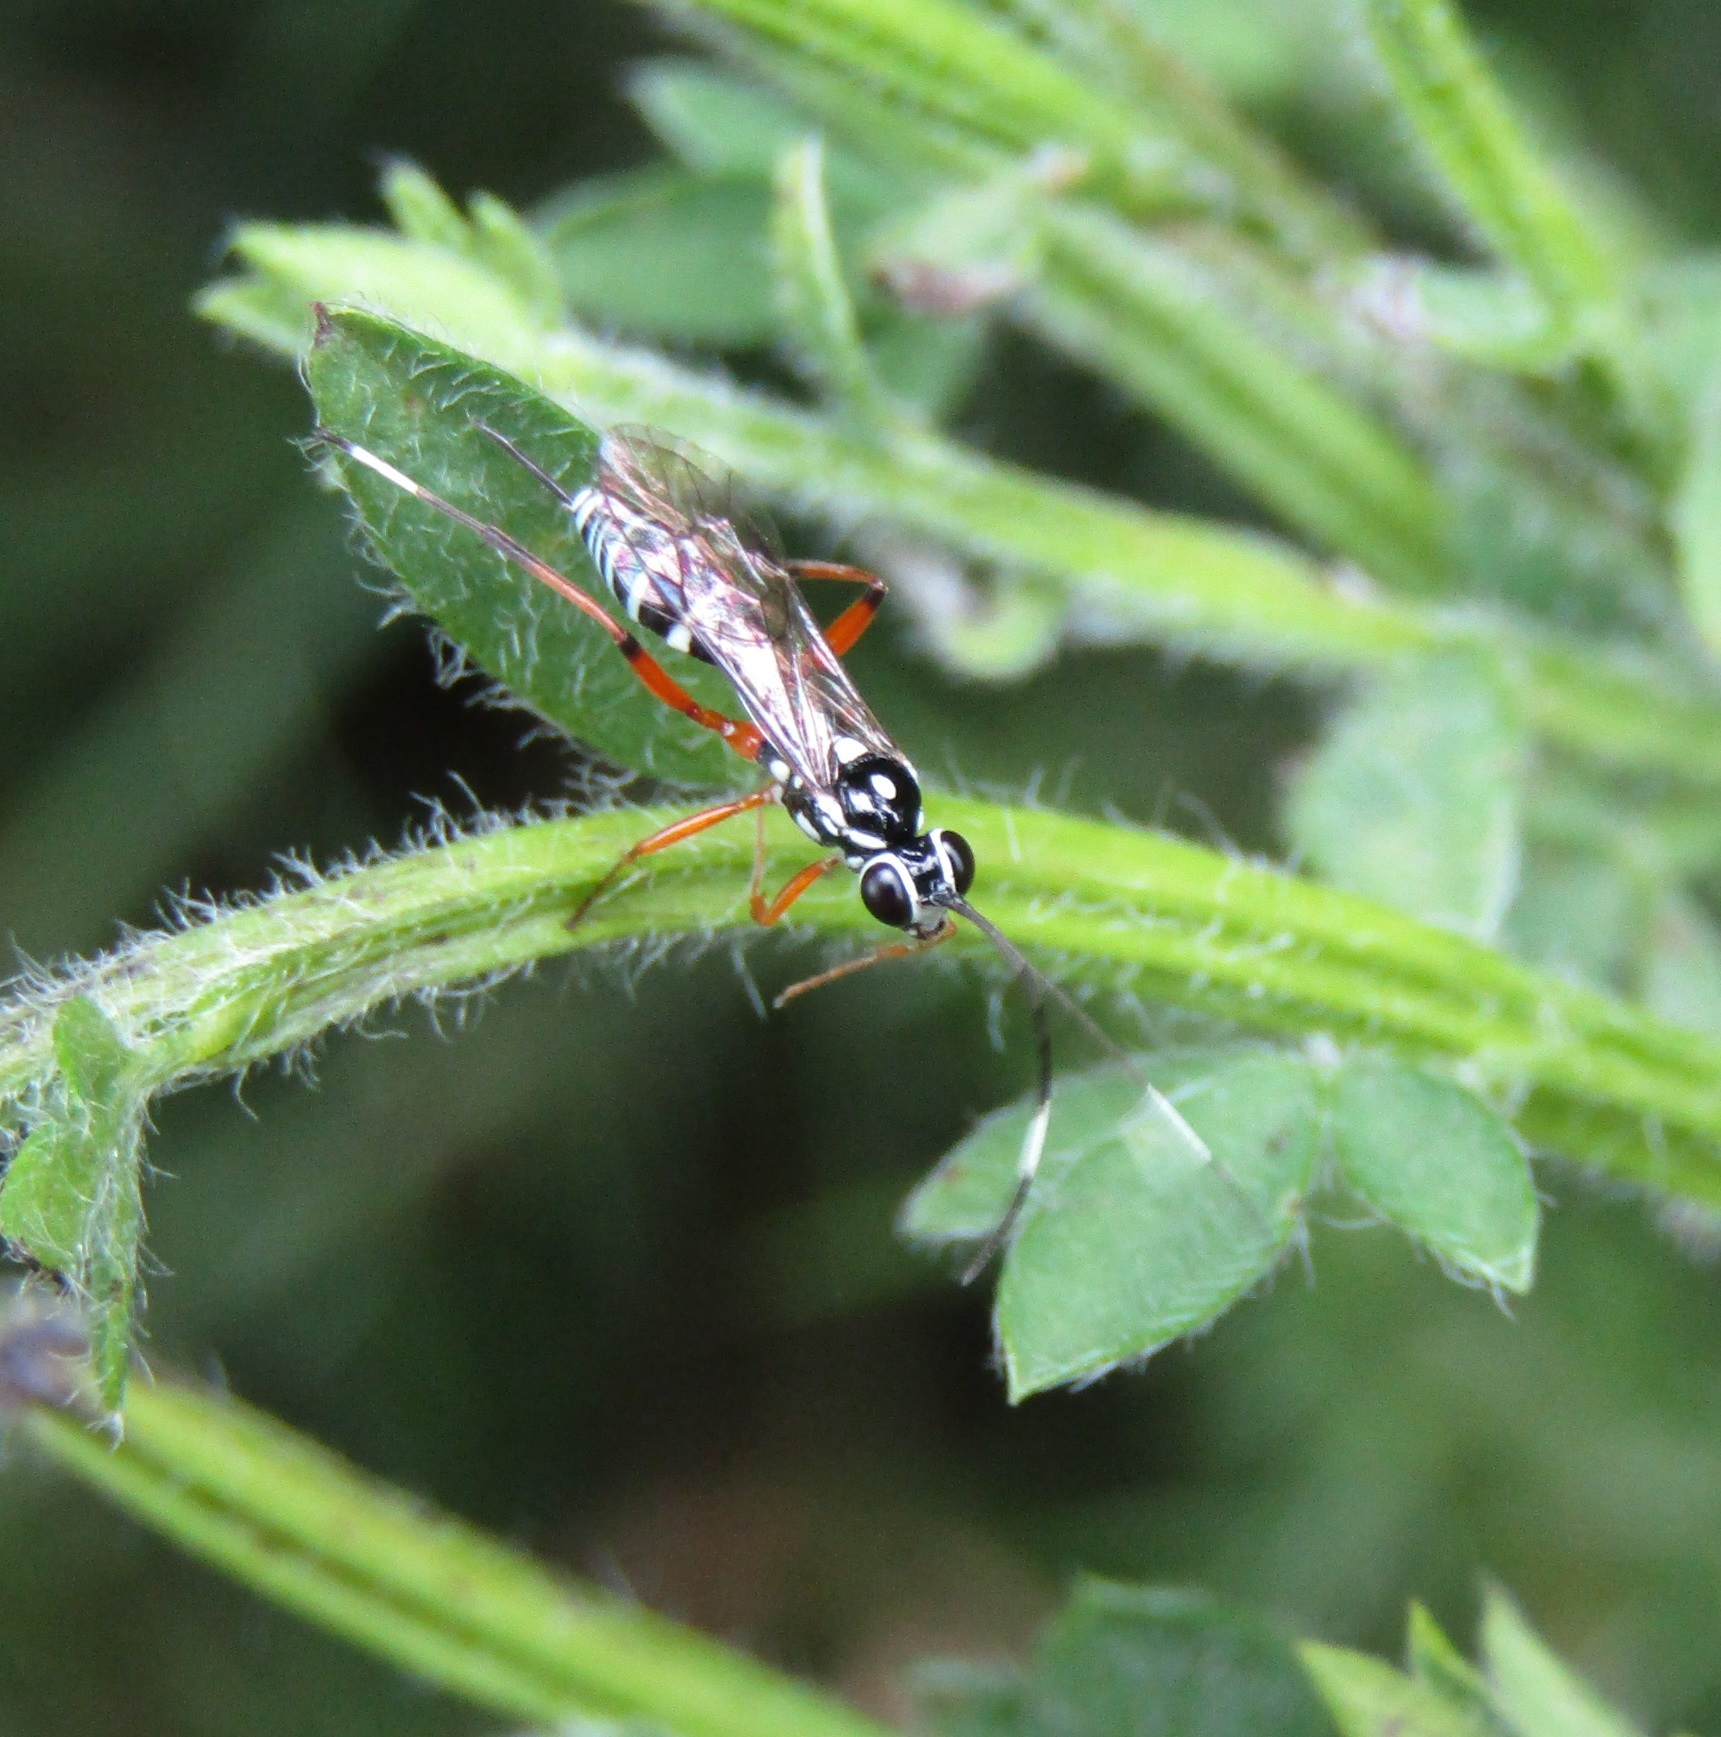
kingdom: Animalia
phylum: Arthropoda
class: Insecta
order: Hymenoptera
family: Ichneumonidae
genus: Glabridorsum
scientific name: Glabridorsum stokesii
